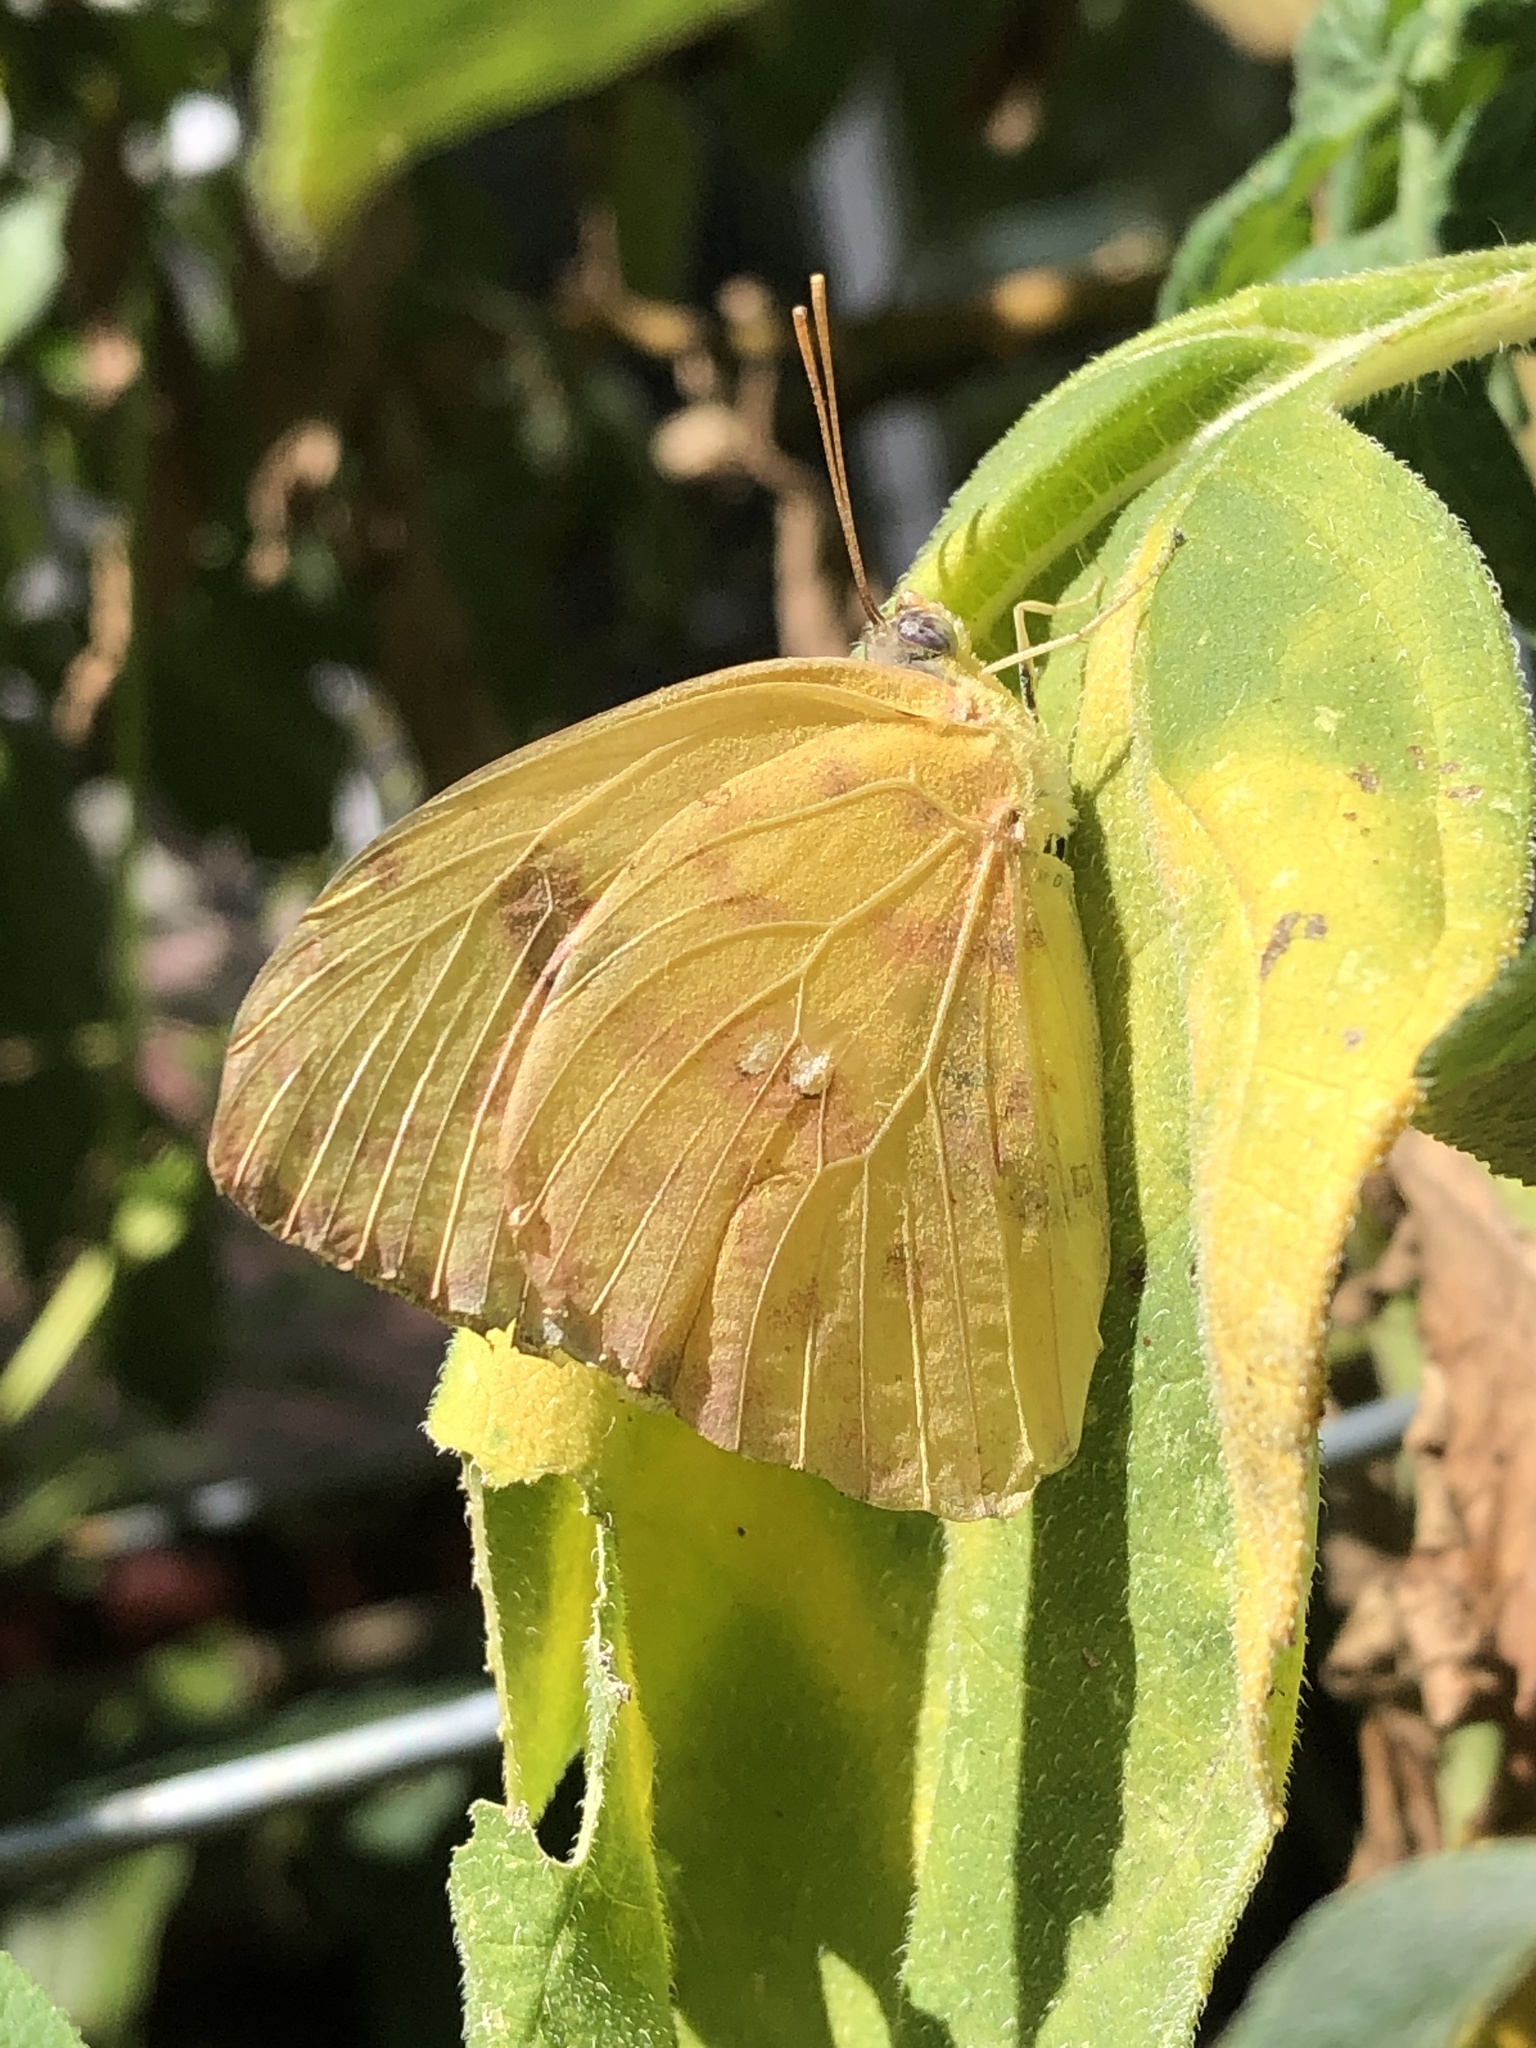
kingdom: Animalia
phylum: Arthropoda
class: Insecta
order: Lepidoptera
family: Pieridae
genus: Phoebis
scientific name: Phoebis sennae
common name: Cloudless sulphur
